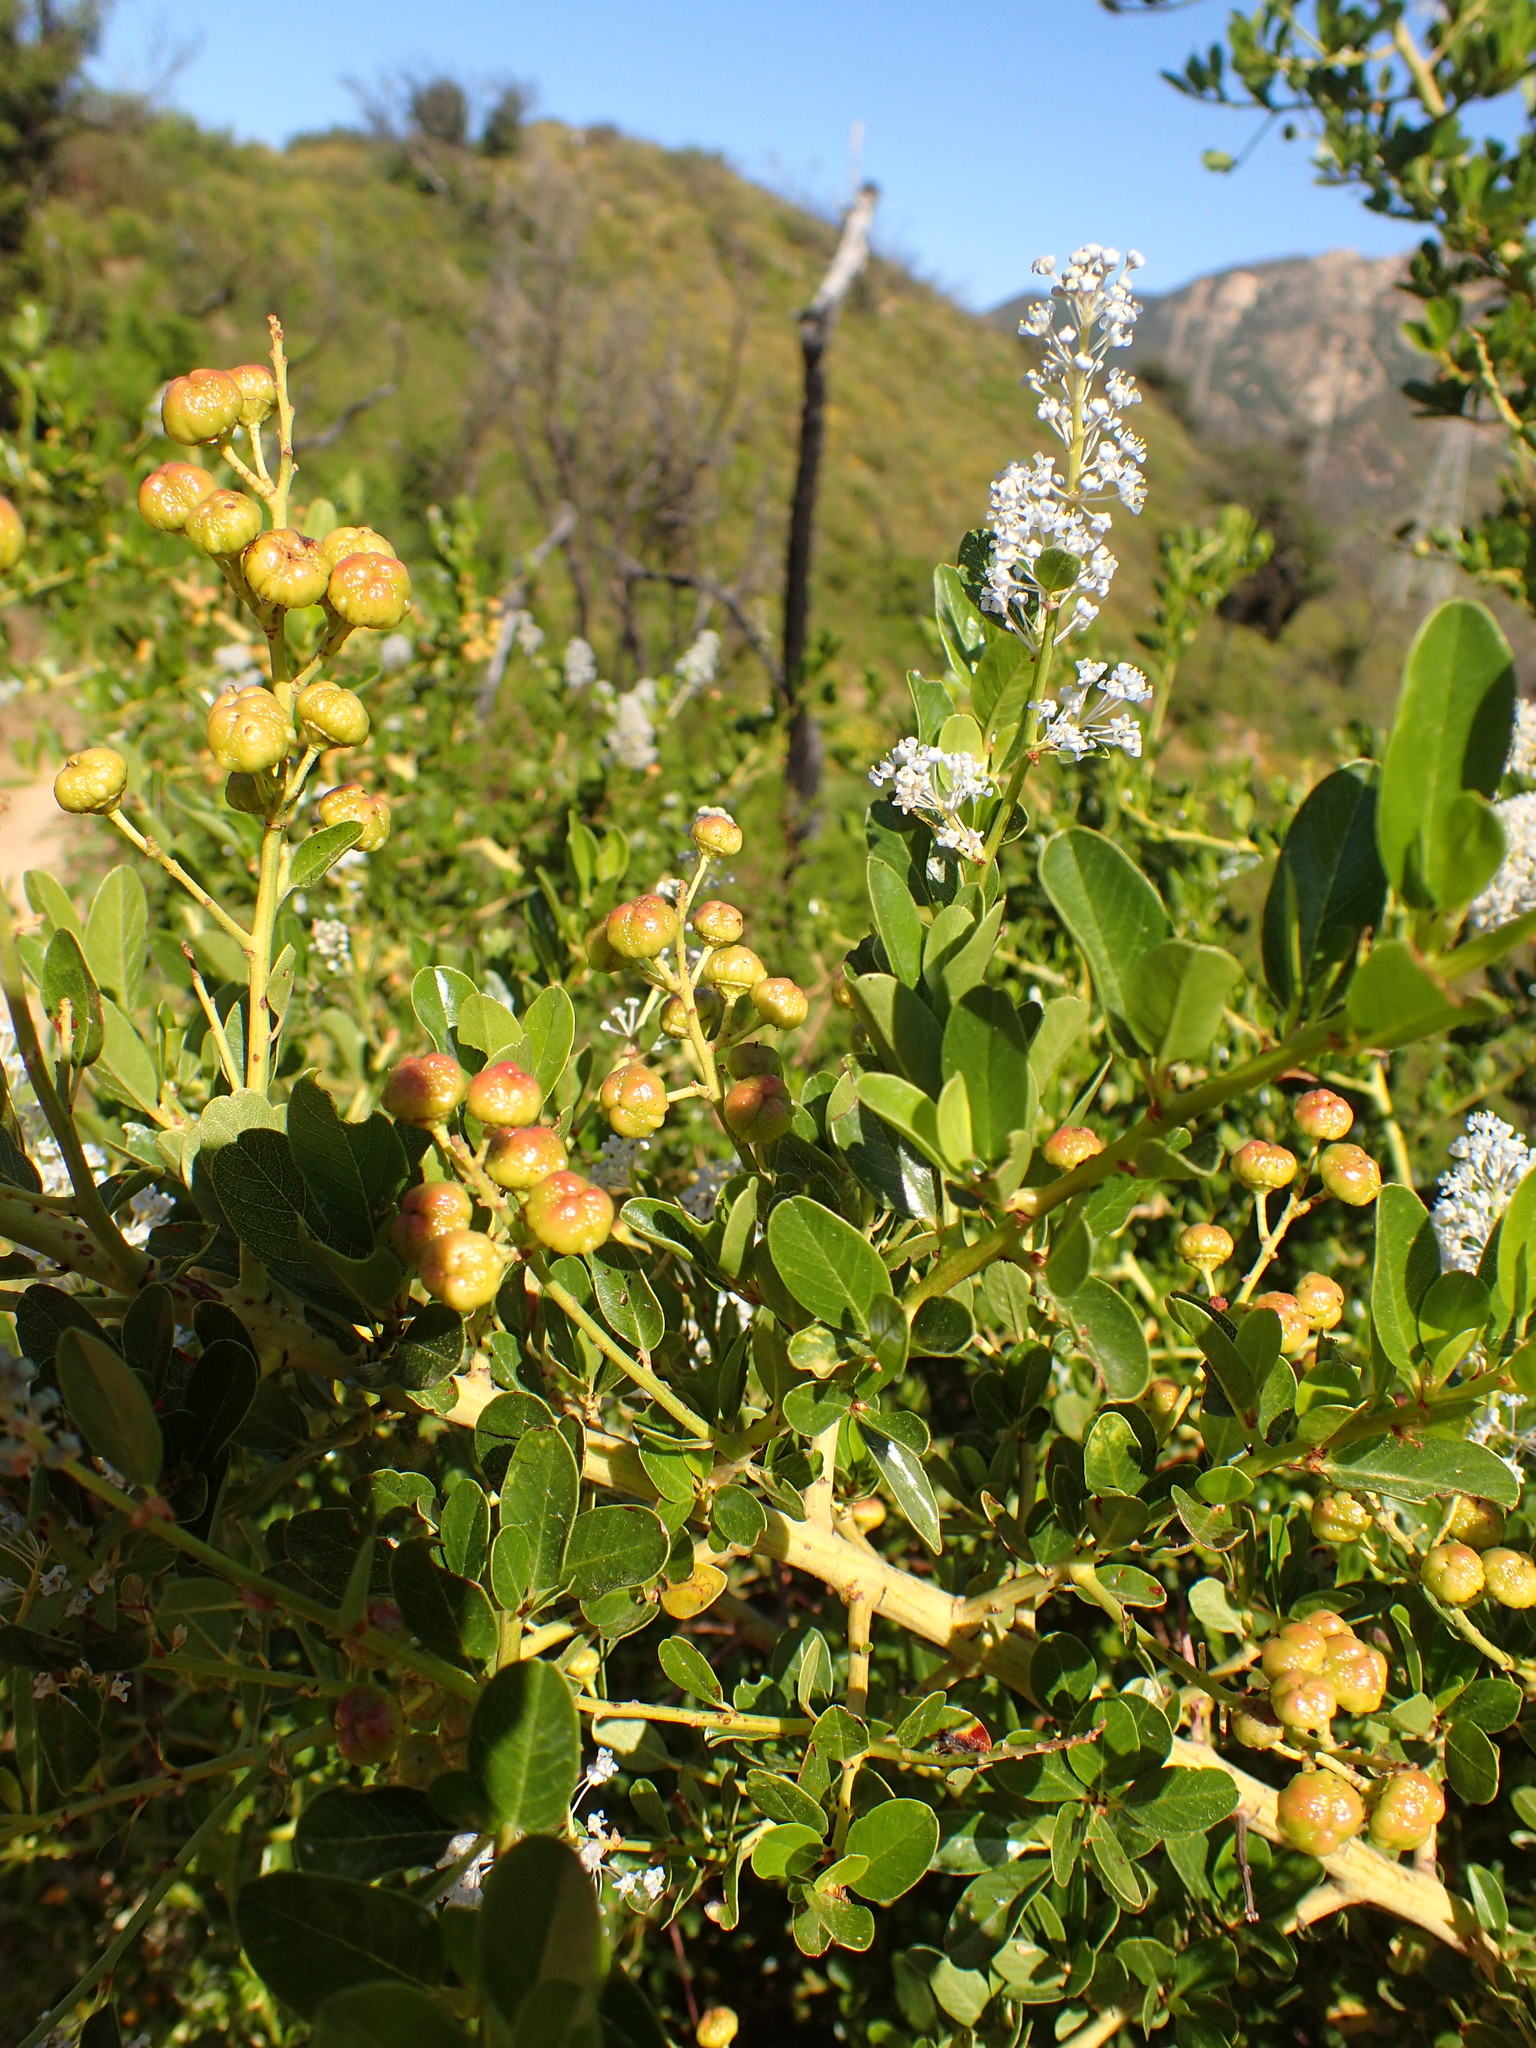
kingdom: Plantae
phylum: Tracheophyta
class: Magnoliopsida
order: Rosales
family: Rhamnaceae
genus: Ceanothus
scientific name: Ceanothus spinosus
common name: Greenbark whitethorn
